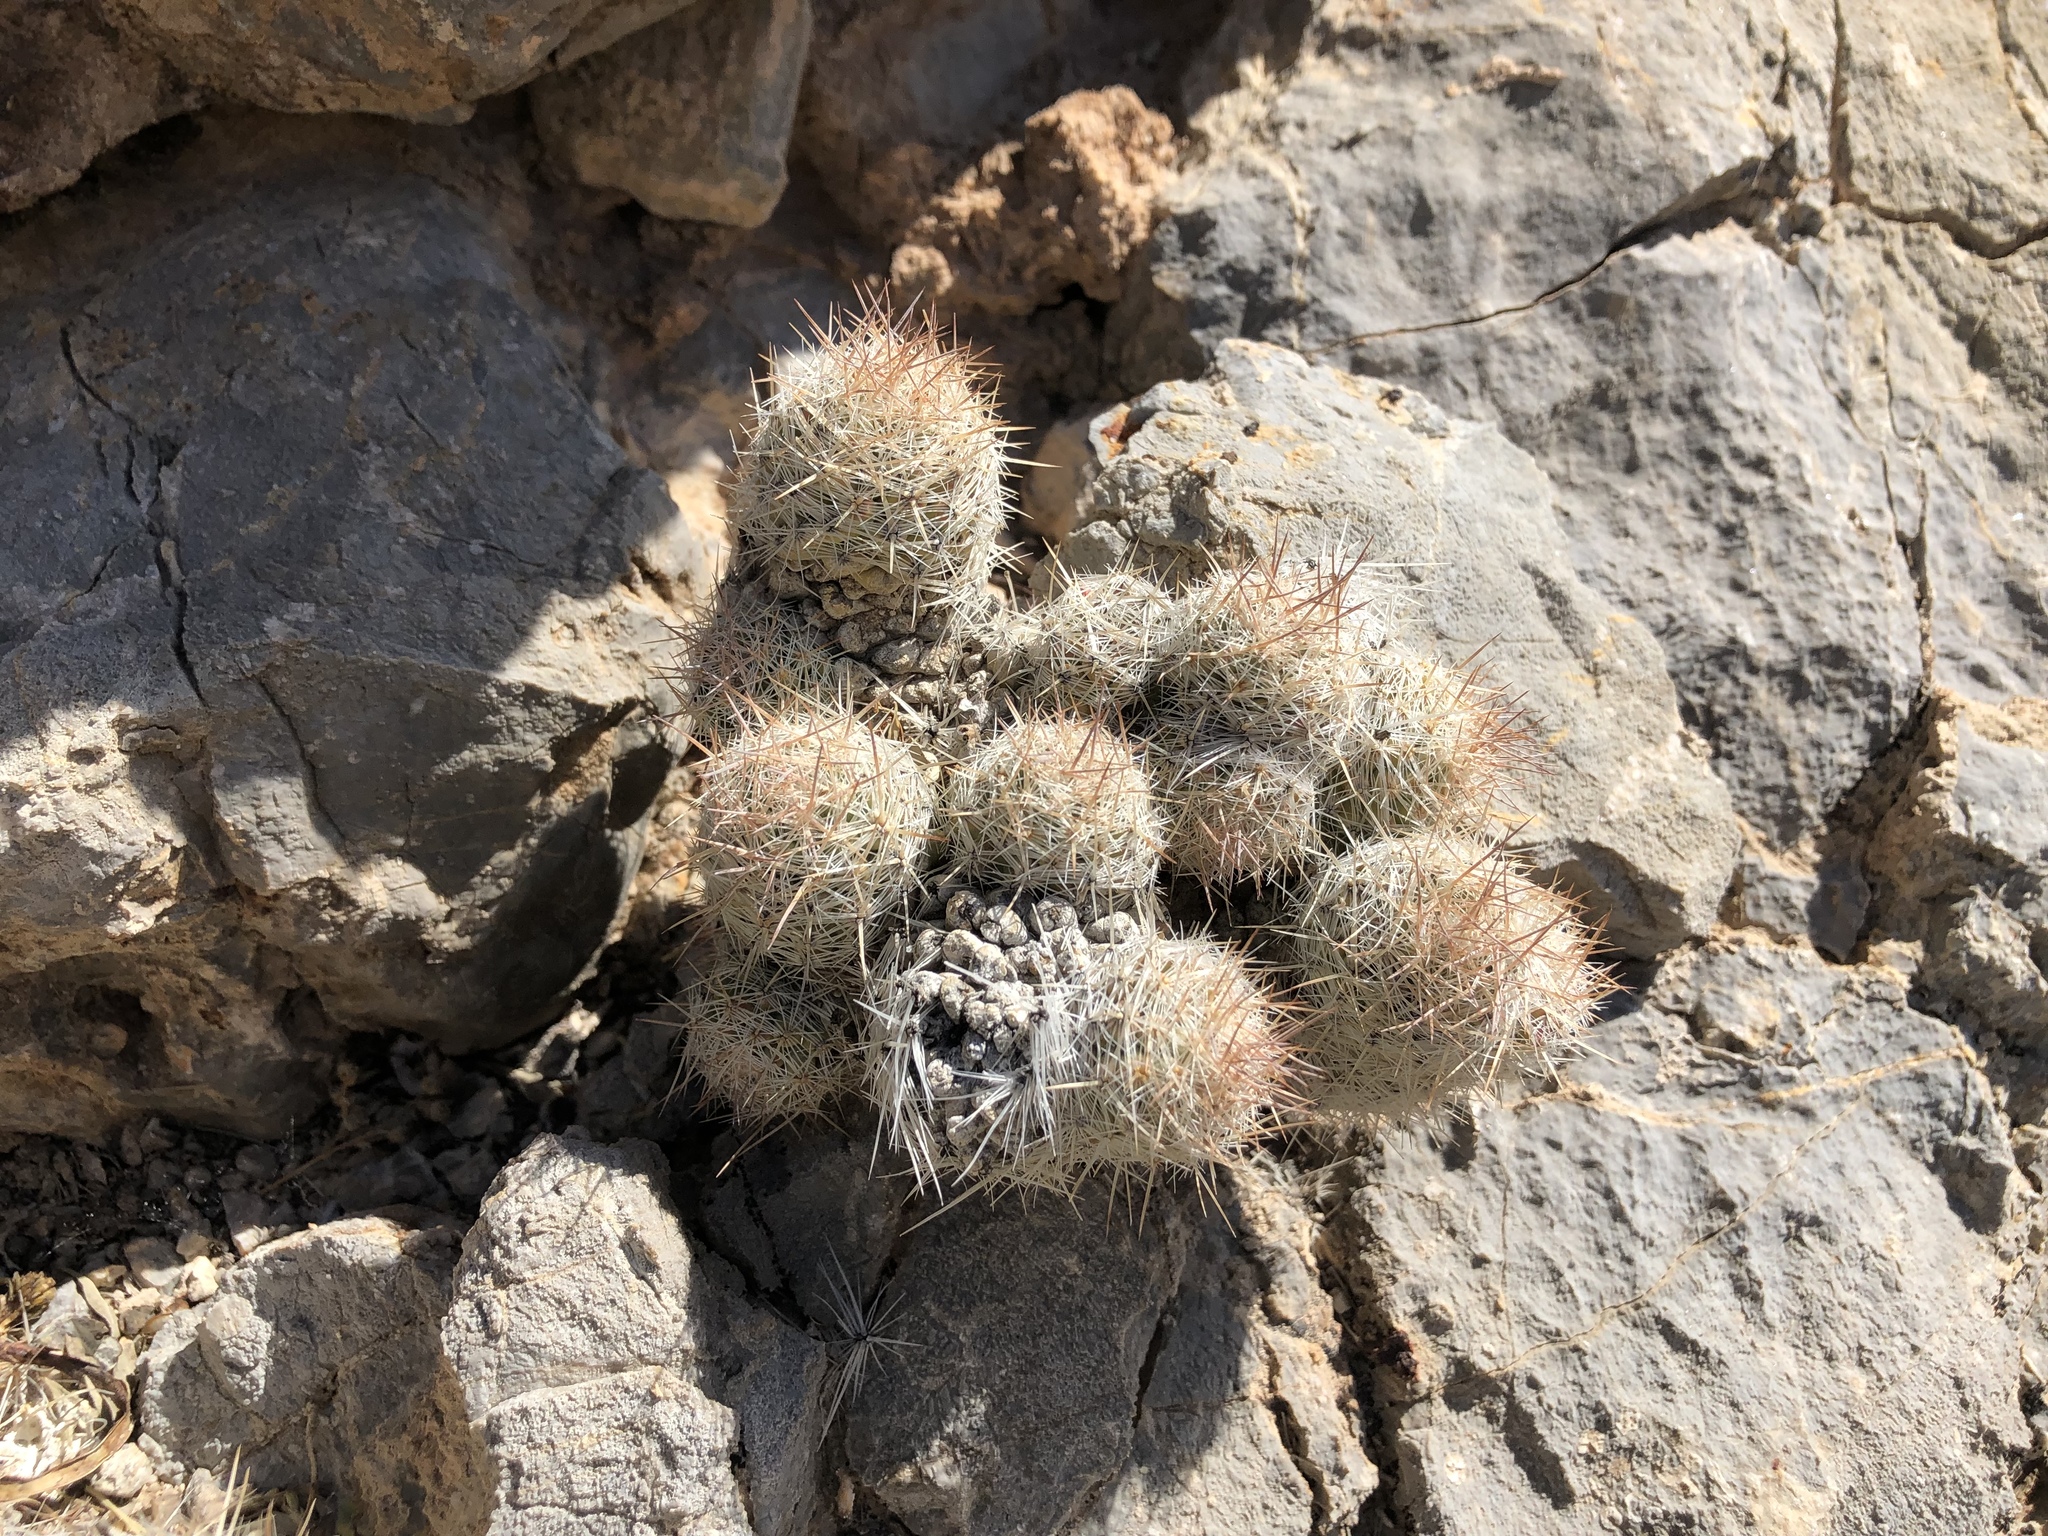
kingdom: Plantae
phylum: Tracheophyta
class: Magnoliopsida
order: Caryophyllales
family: Cactaceae
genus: Pelecyphora
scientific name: Pelecyphora tuberculosa
